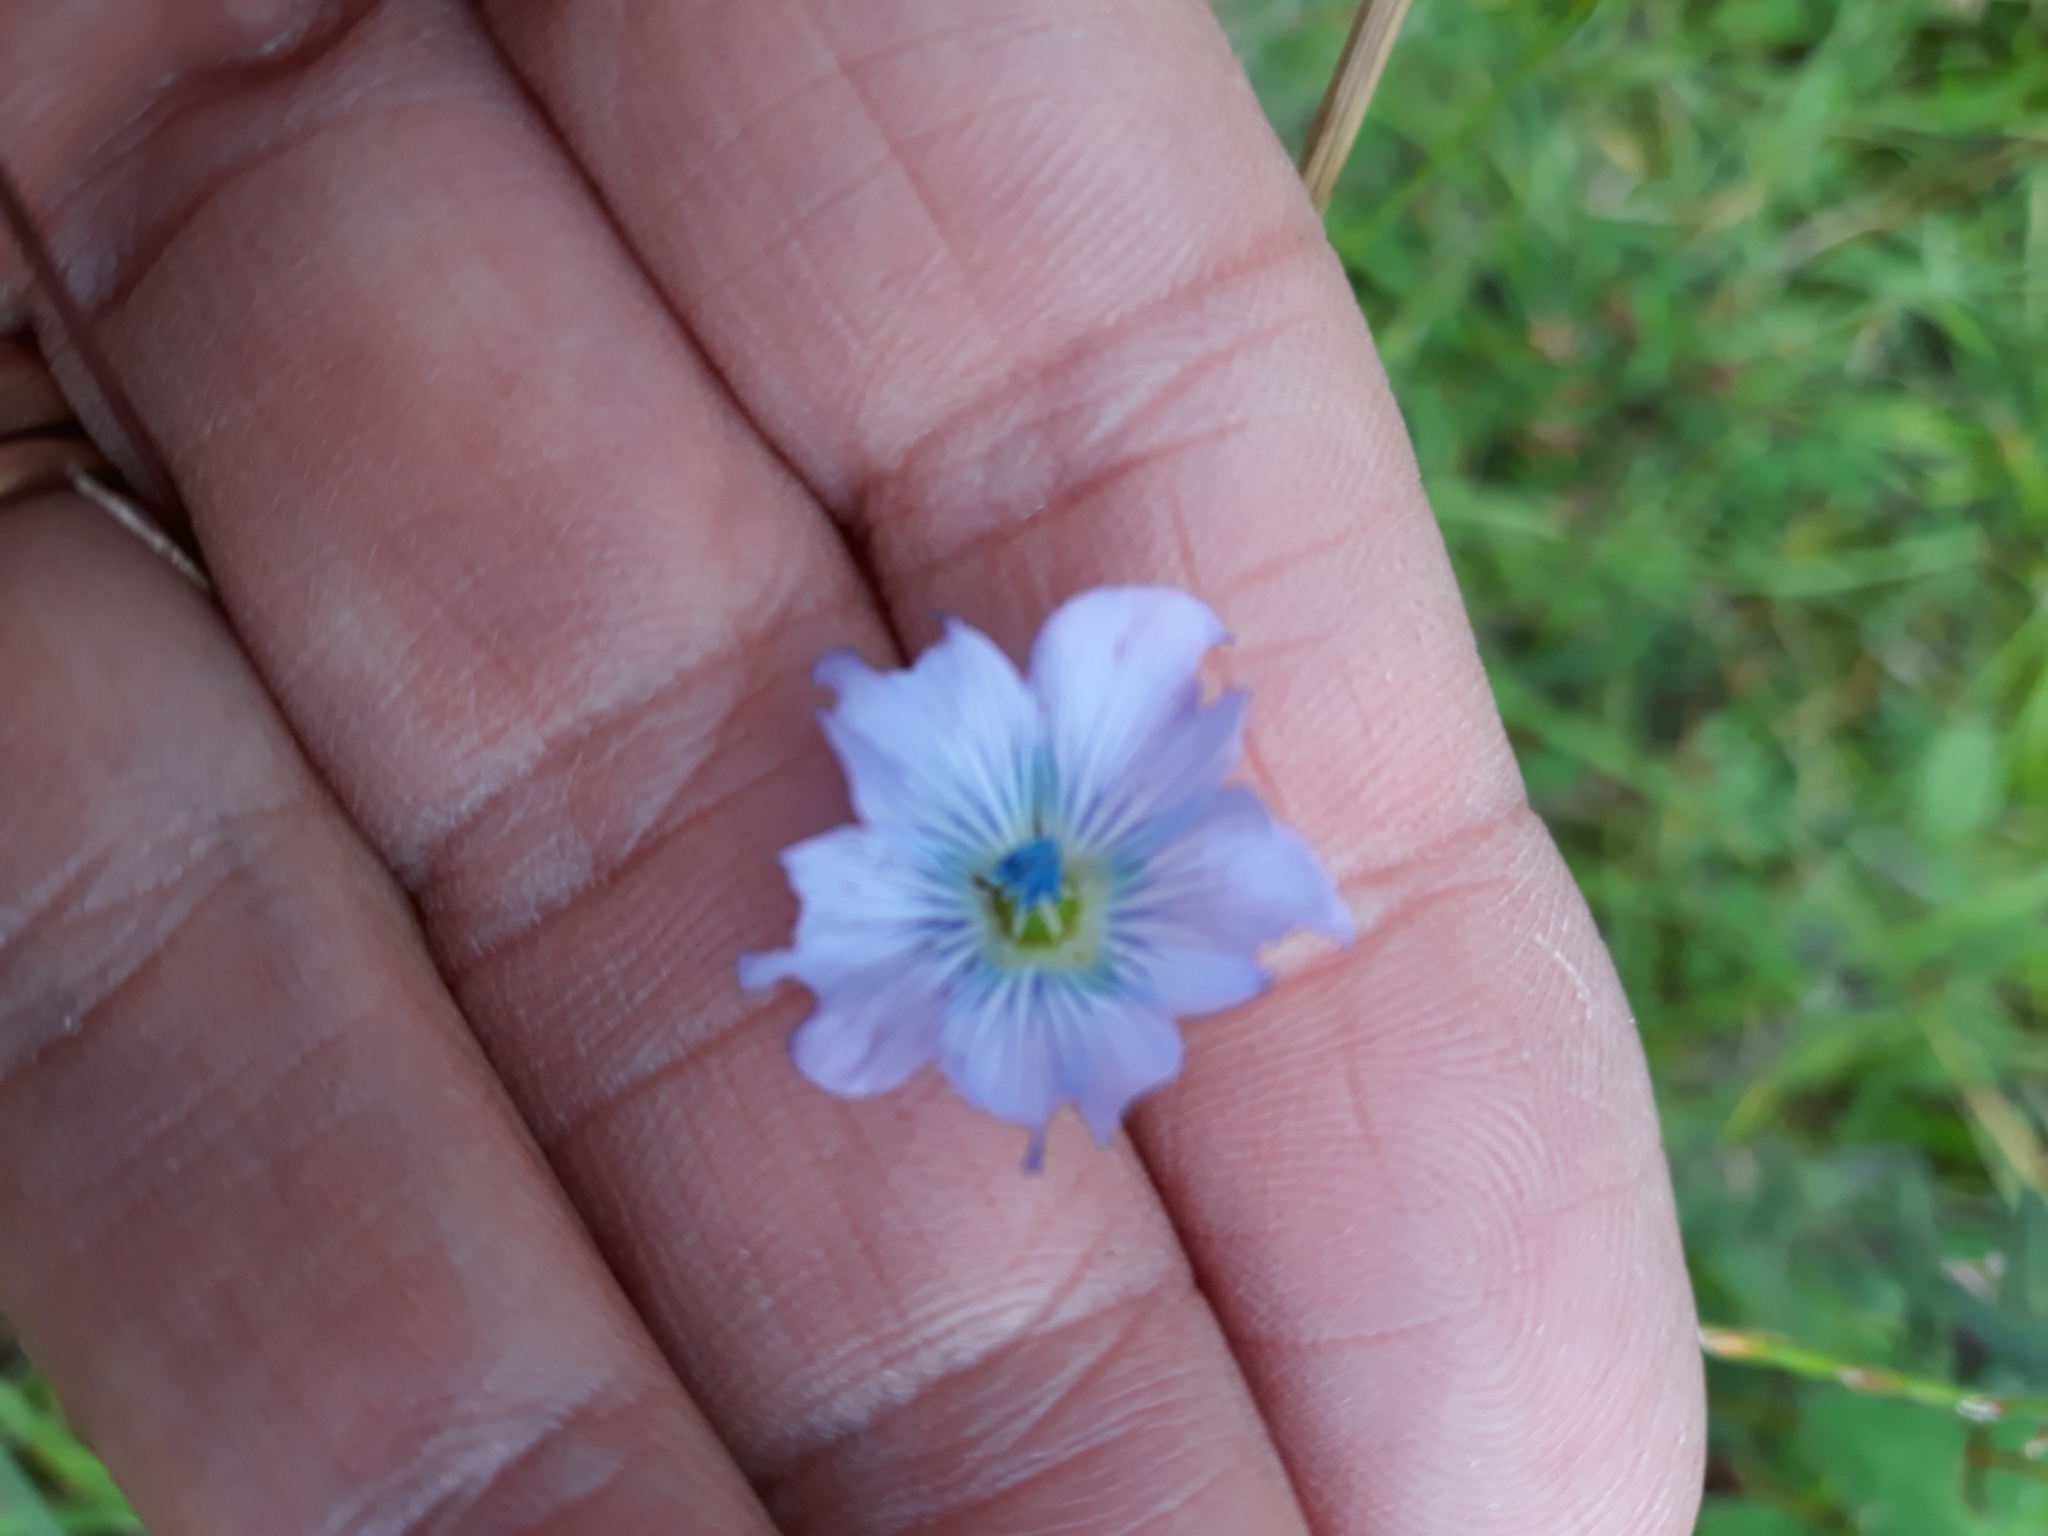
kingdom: Plantae
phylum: Tracheophyta
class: Magnoliopsida
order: Malpighiales
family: Linaceae
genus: Linum
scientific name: Linum usitatissimum
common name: Flax
